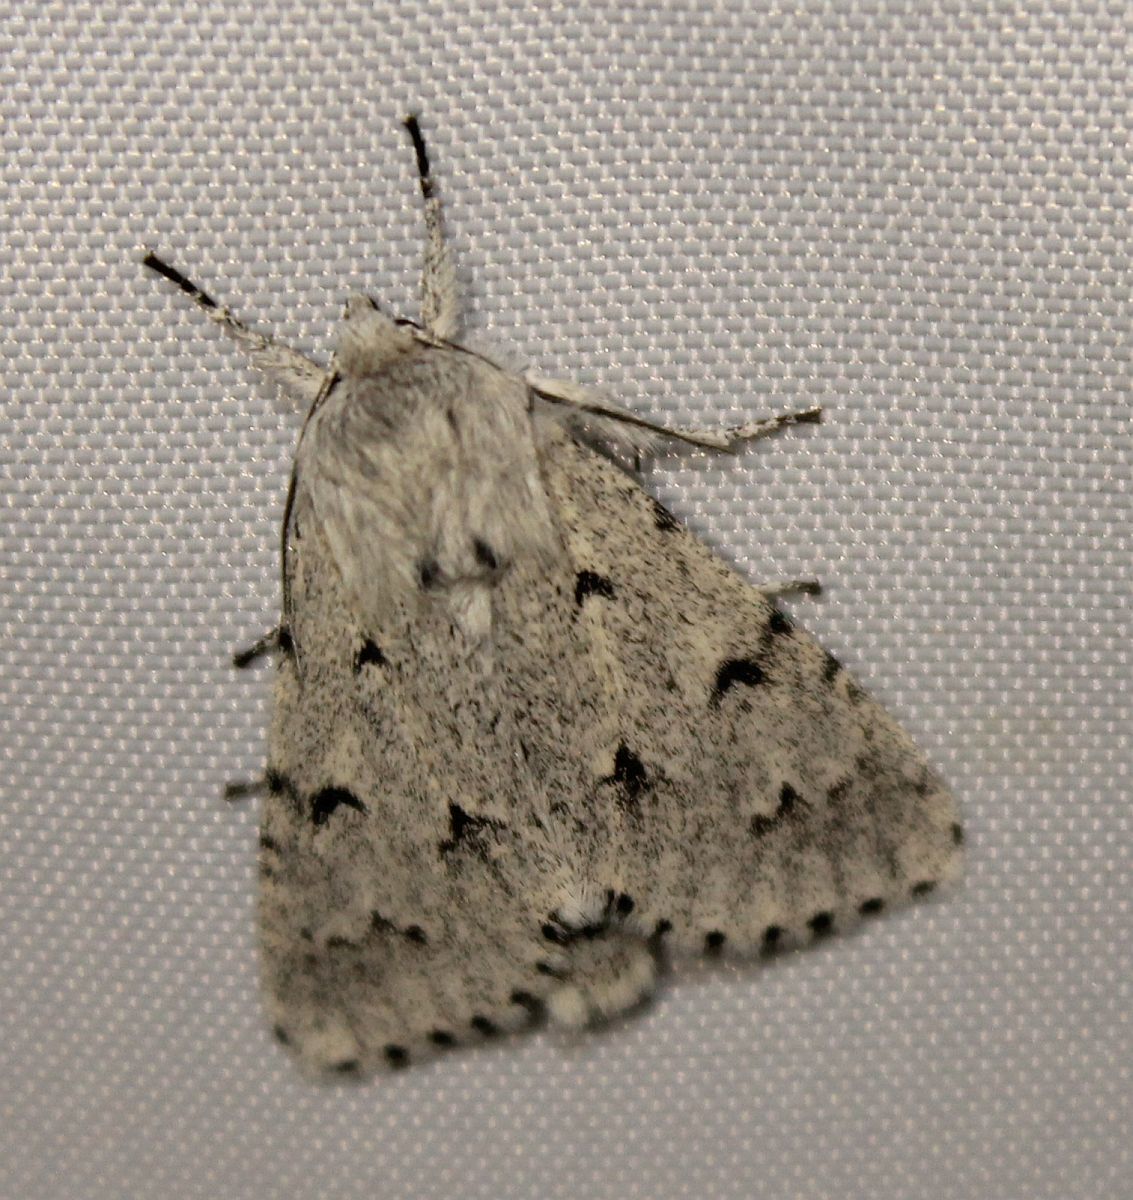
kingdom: Animalia
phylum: Arthropoda
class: Insecta
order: Lepidoptera
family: Noctuidae
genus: Acronicta
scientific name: Acronicta leporina
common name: Miller
